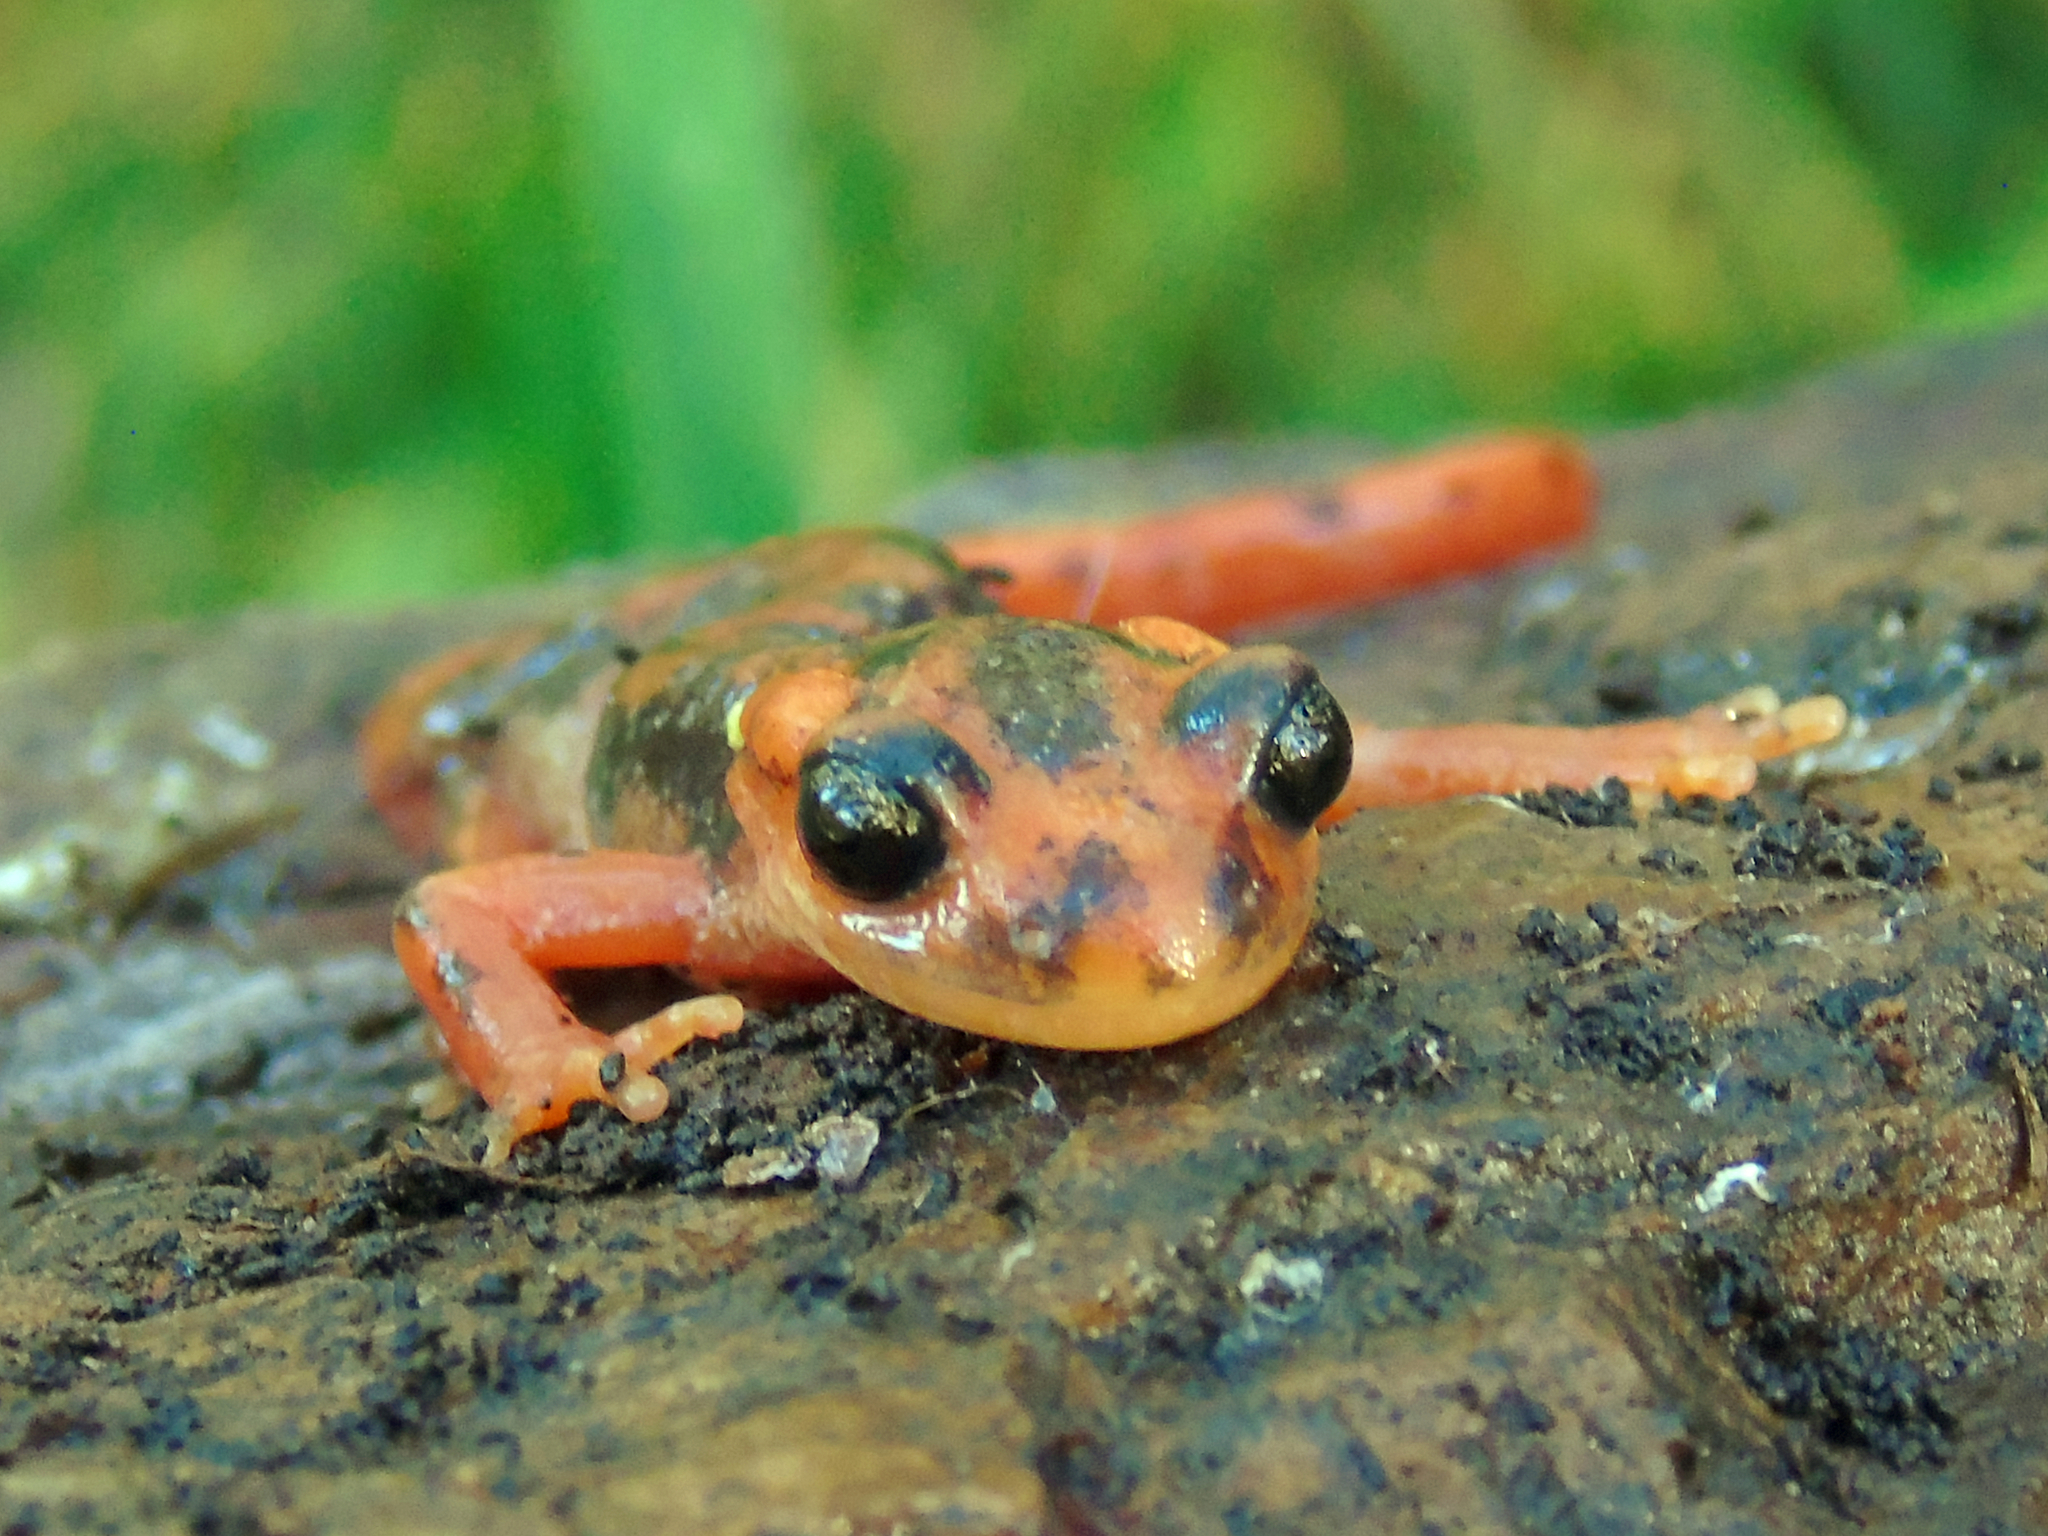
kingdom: Animalia
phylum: Chordata
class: Amphibia
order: Caudata
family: Salamandridae
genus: Lyciasalamandra
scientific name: Lyciasalamandra fazilae
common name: Fazila's salamander
